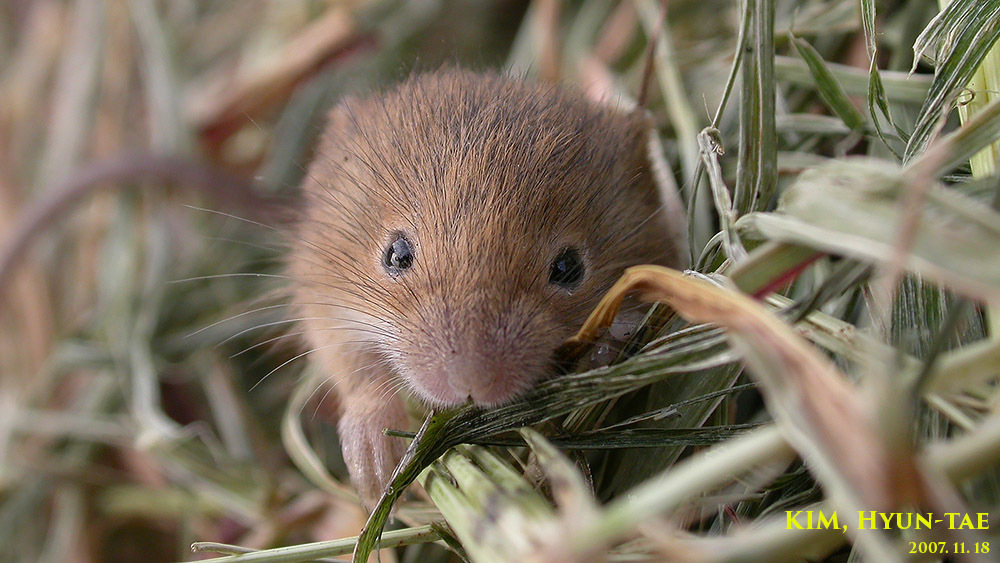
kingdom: Animalia
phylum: Chordata
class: Mammalia
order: Rodentia
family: Muridae
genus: Micromys
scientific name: Micromys minutus
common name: Harvest mouse
